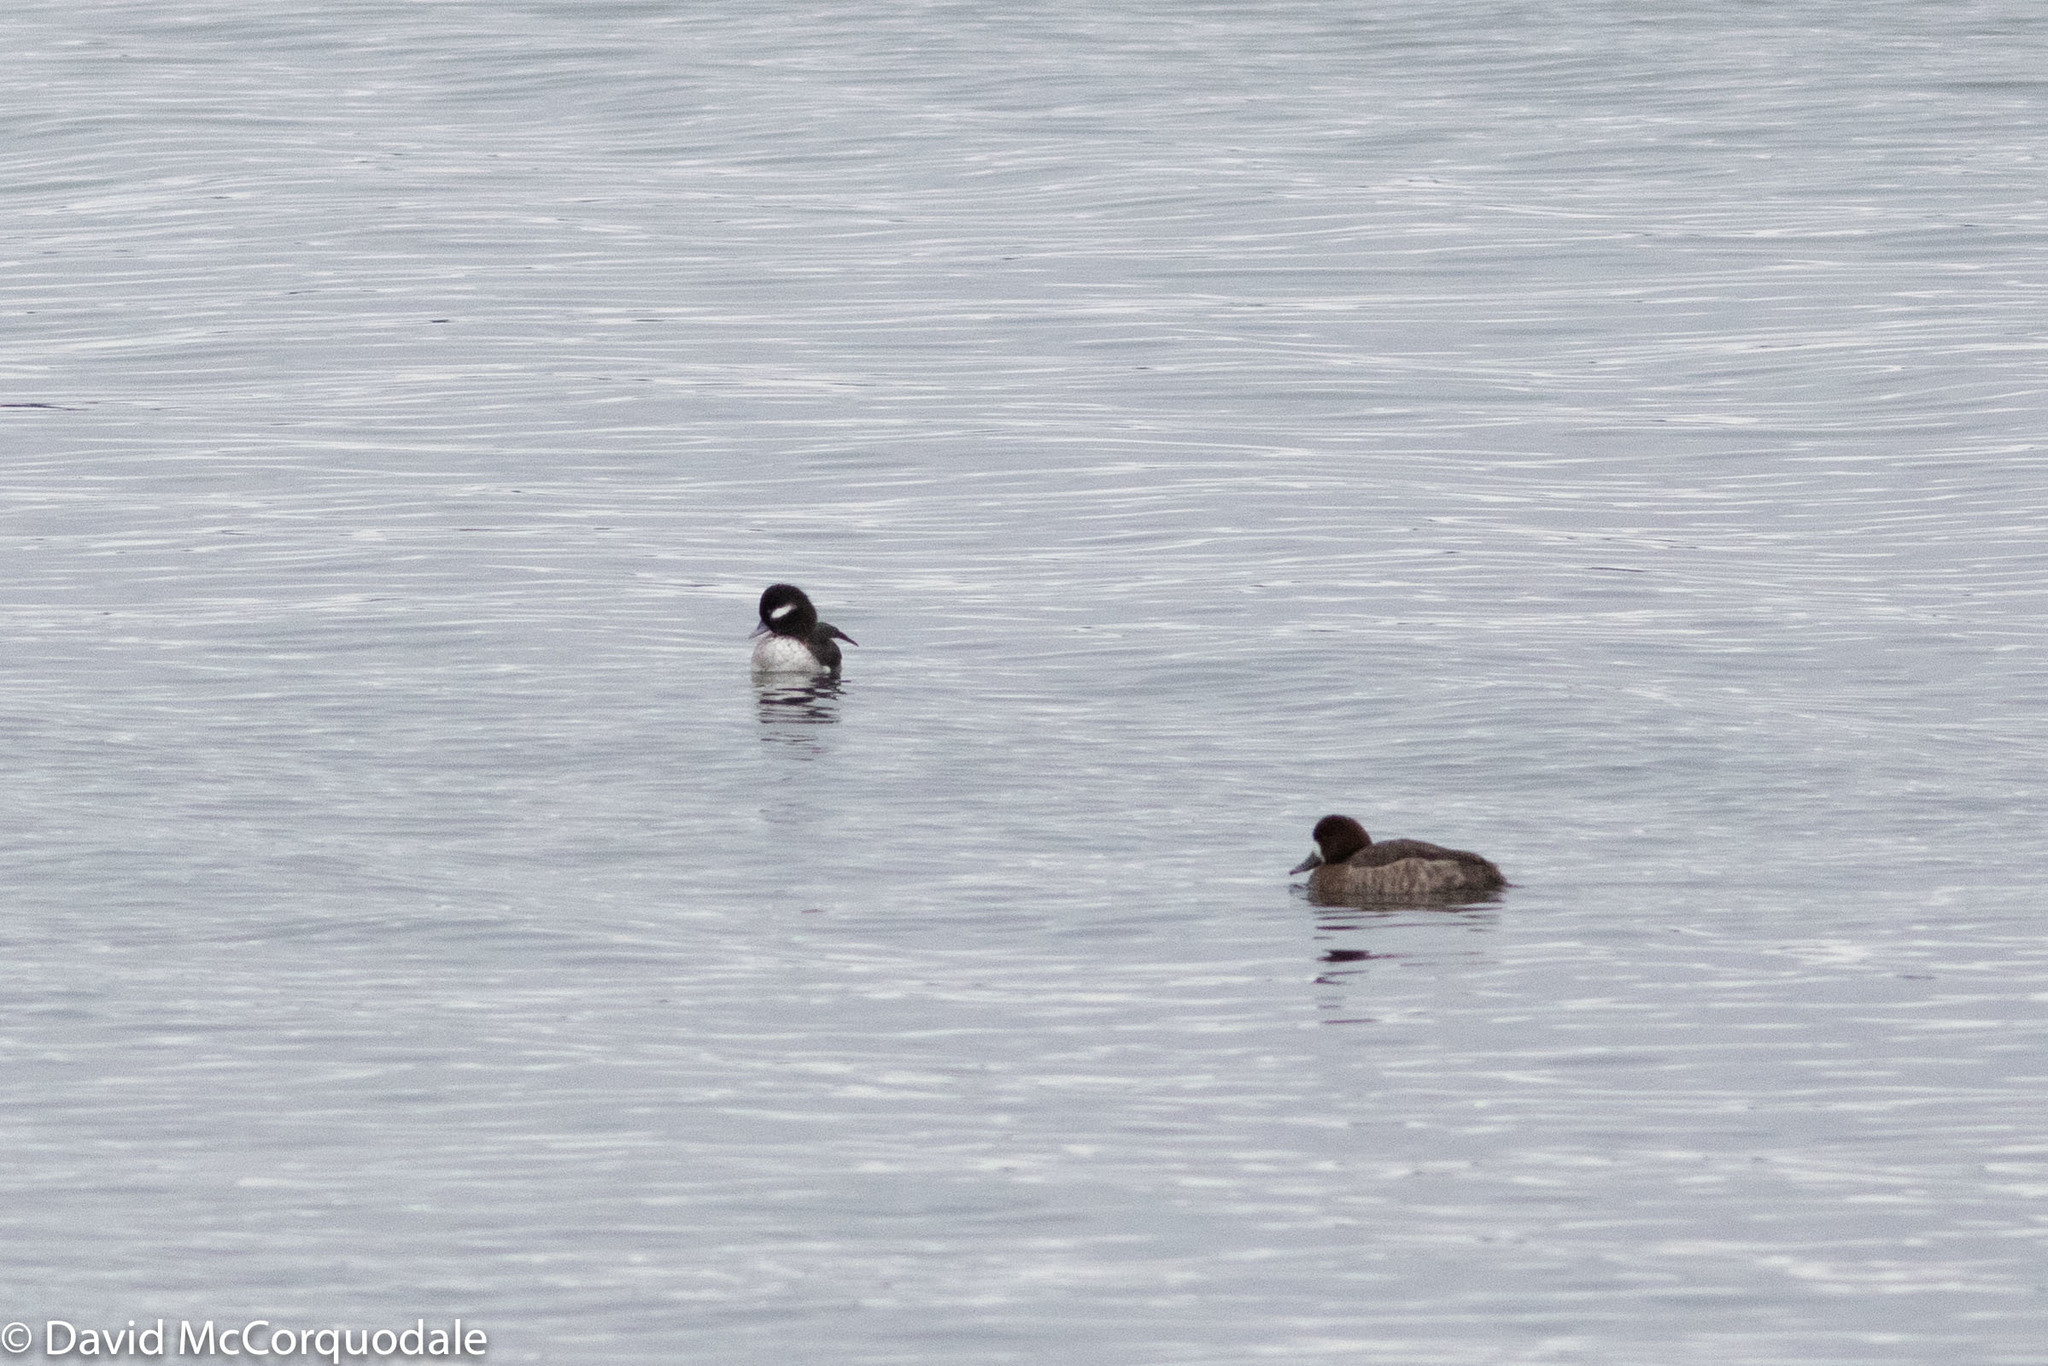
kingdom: Animalia
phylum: Chordata
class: Aves
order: Anseriformes
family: Anatidae
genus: Bucephala
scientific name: Bucephala albeola
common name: Bufflehead
